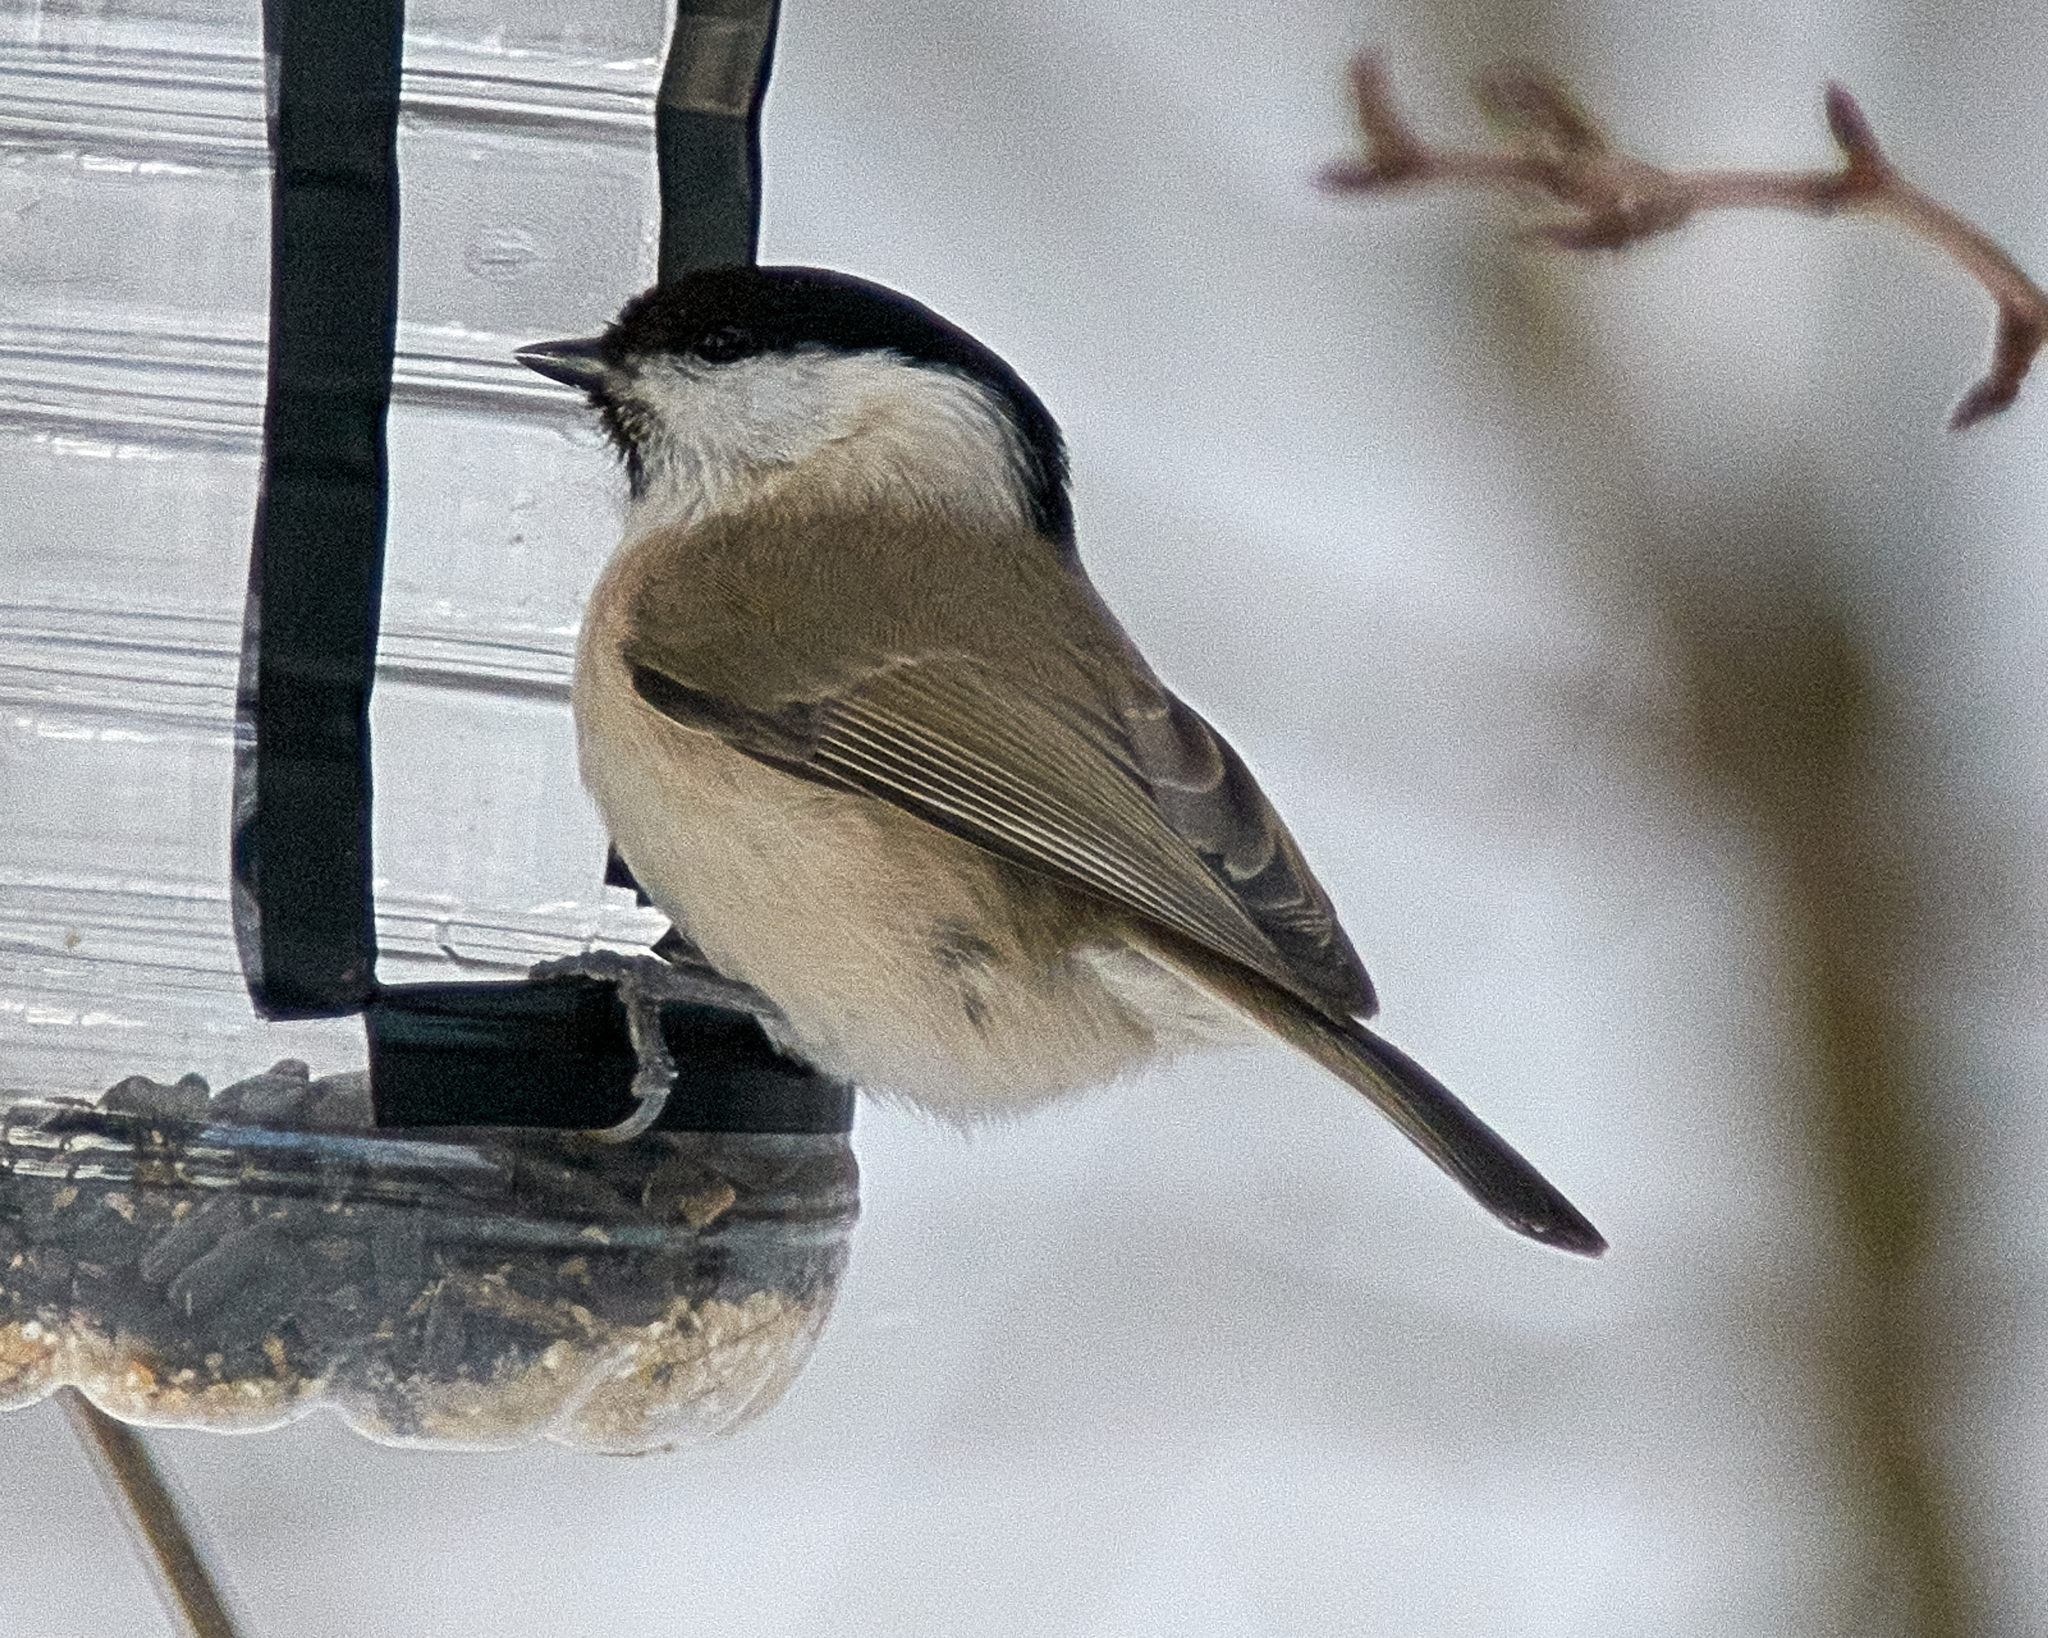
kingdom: Animalia
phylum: Chordata
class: Aves
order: Passeriformes
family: Paridae
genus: Poecile
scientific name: Poecile palustris
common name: Marsh tit
